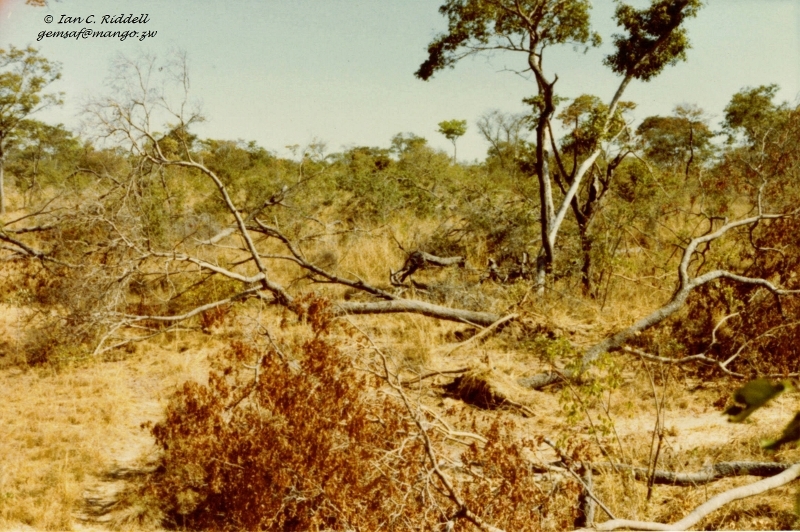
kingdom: Plantae
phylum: Tracheophyta
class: Magnoliopsida
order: Fabales
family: Fabaceae
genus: Julbernardia
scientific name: Julbernardia globiflora
